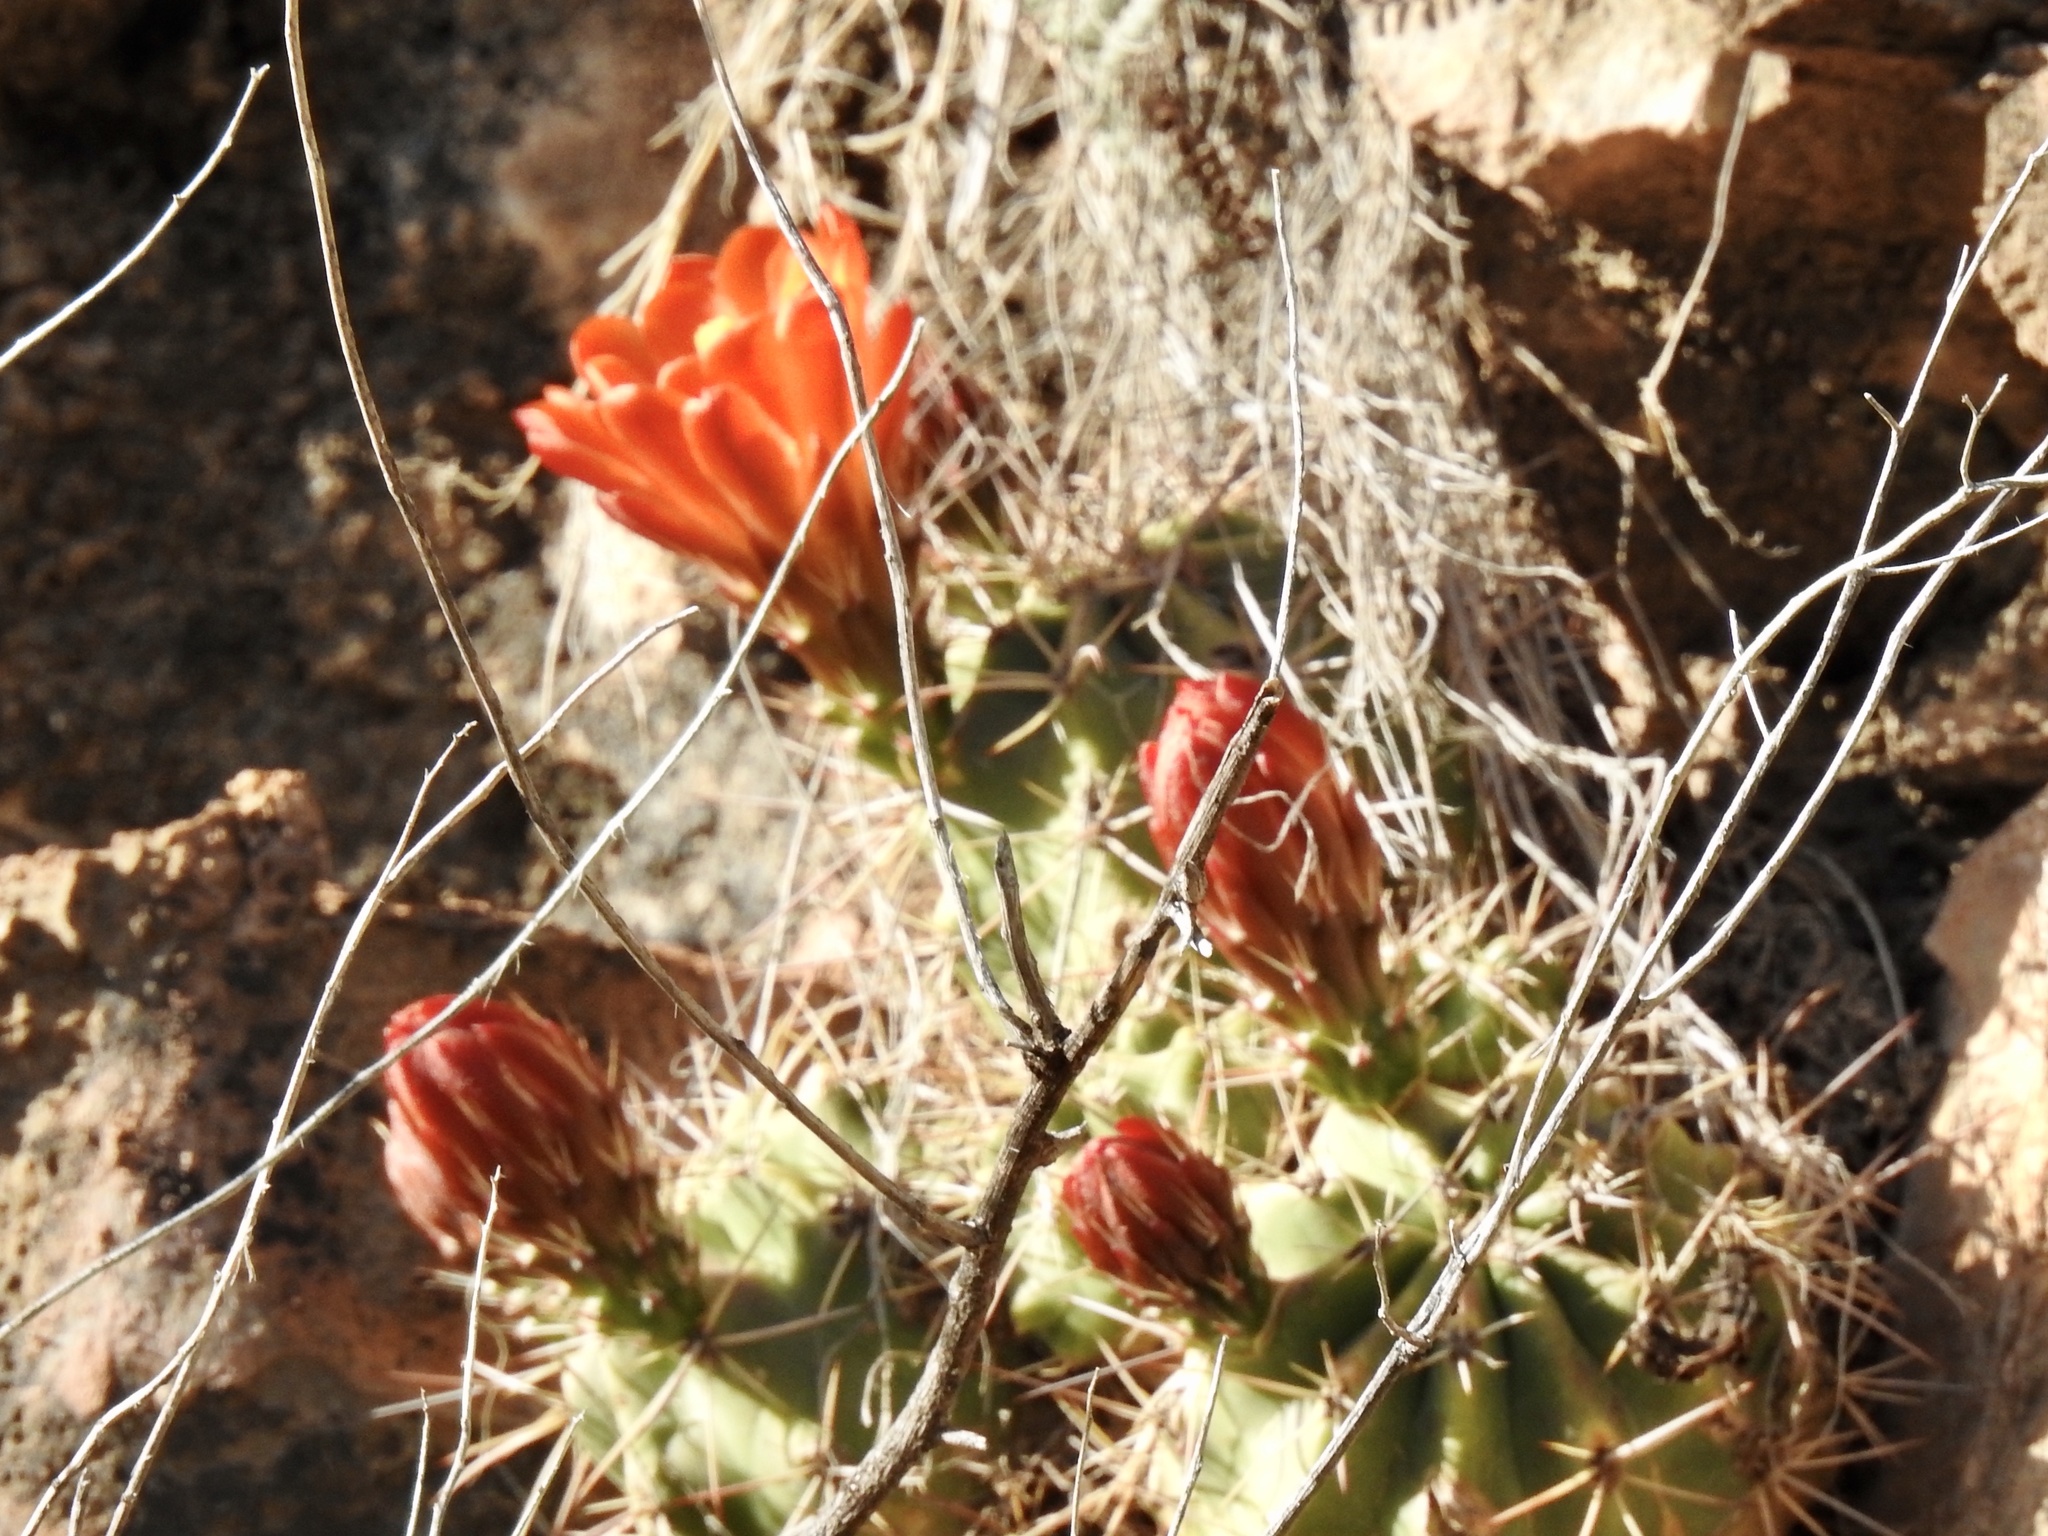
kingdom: Plantae
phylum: Tracheophyta
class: Magnoliopsida
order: Caryophyllales
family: Cactaceae
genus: Echinocereus
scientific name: Echinocereus coccineus
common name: Scarlet hedgehog cactus
